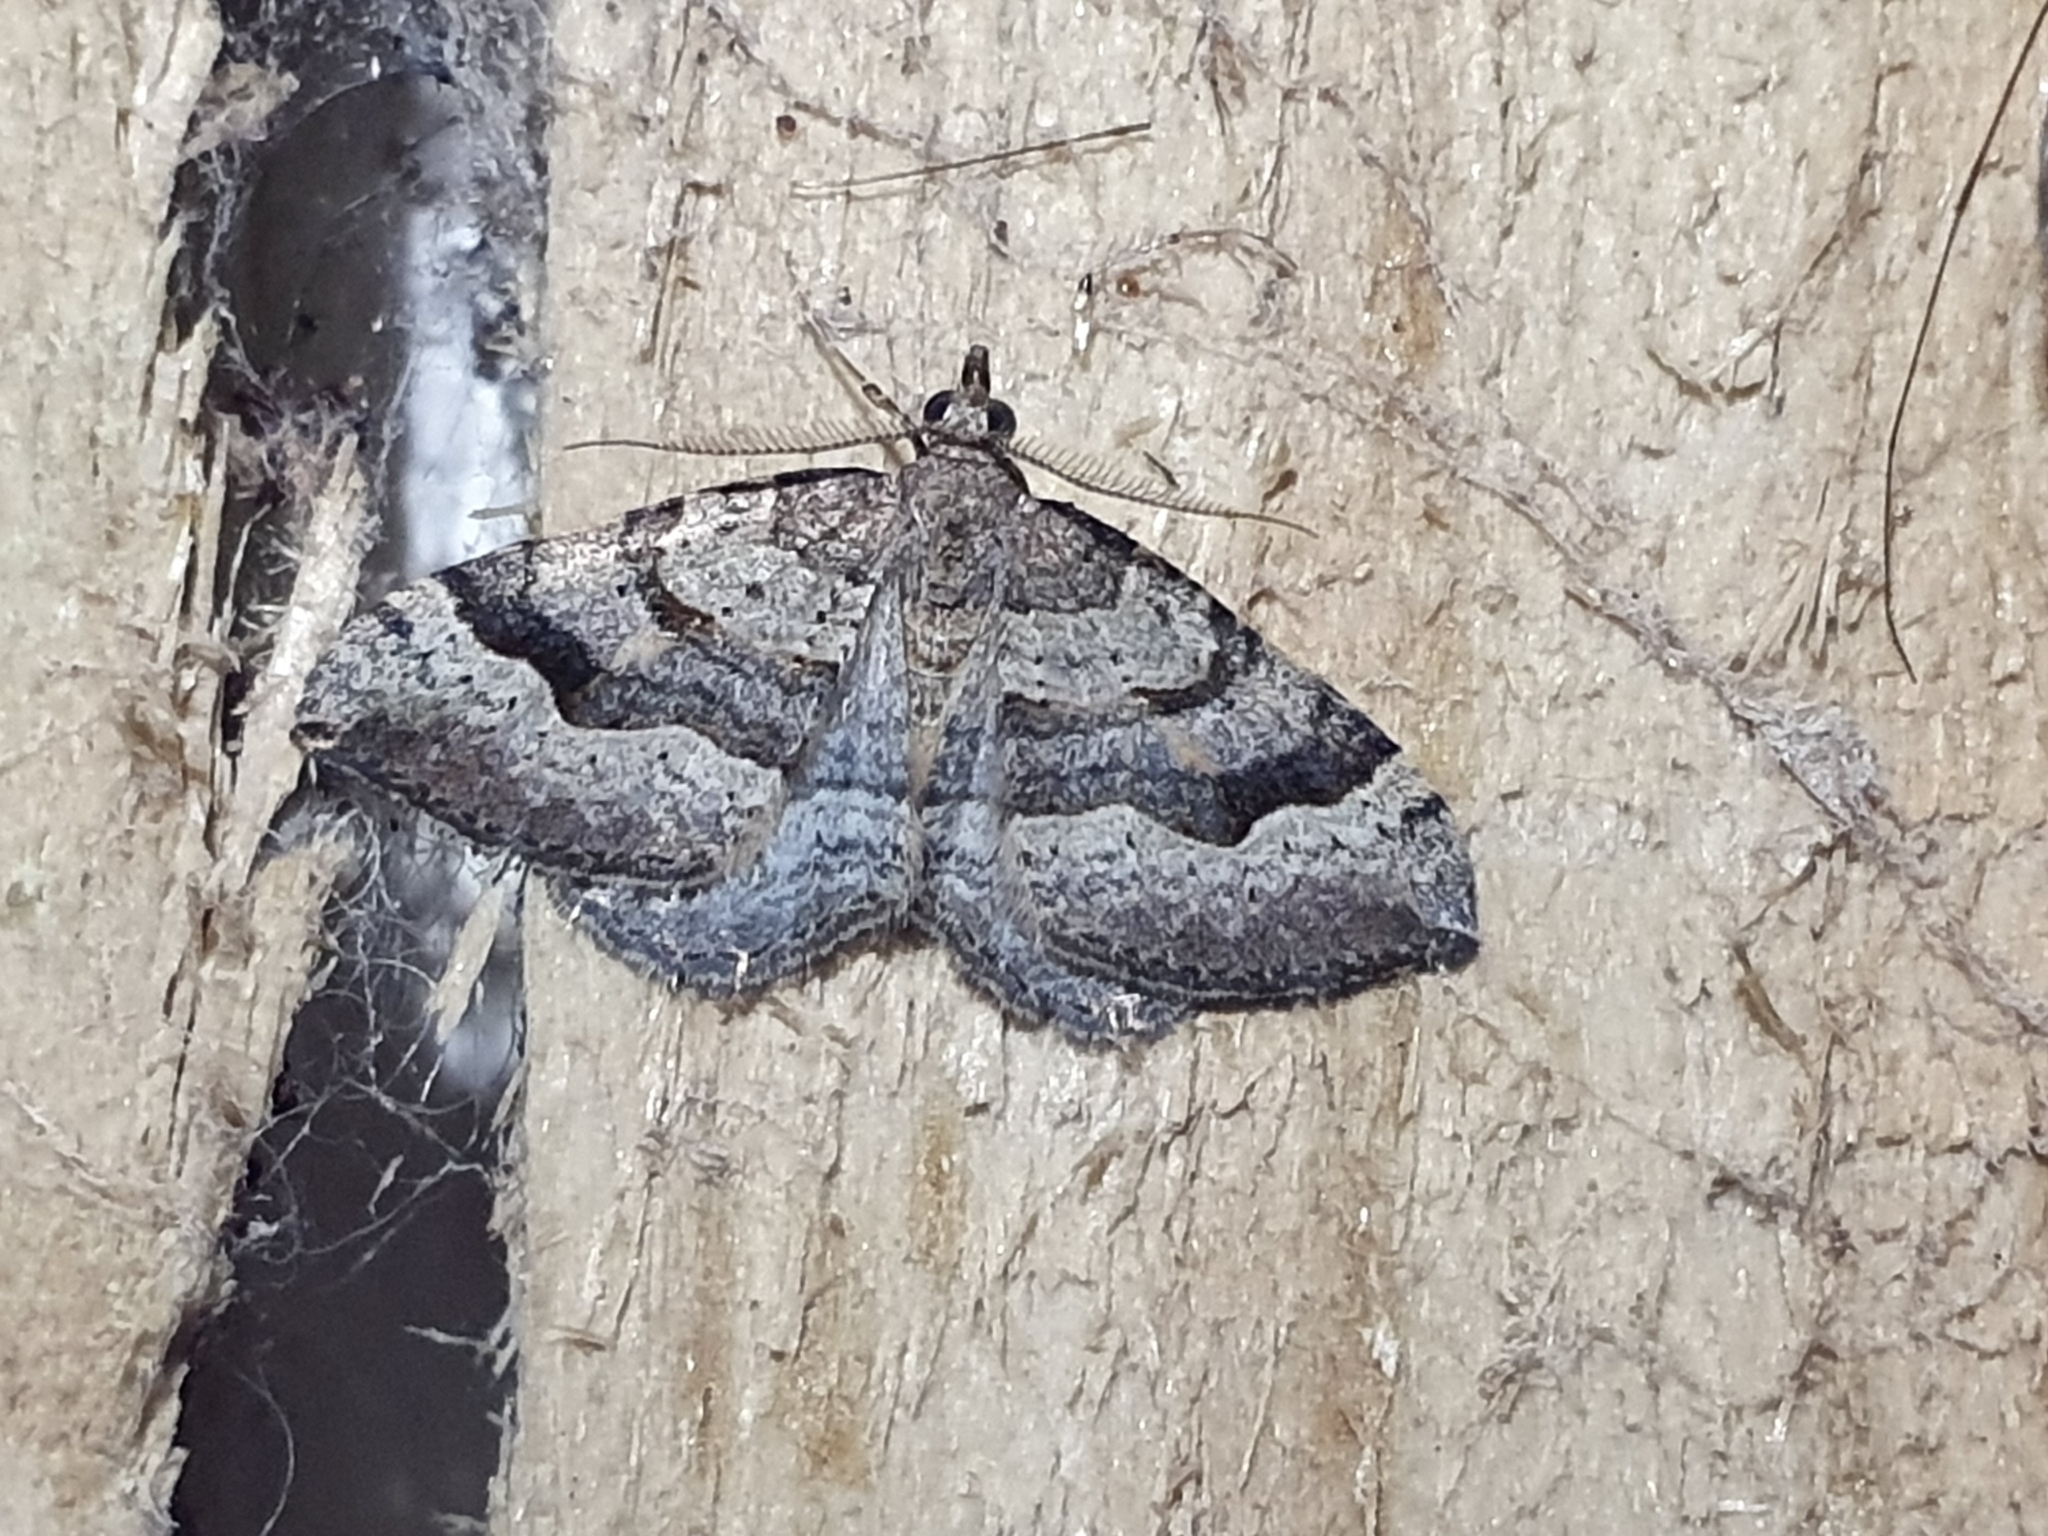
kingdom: Animalia
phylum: Arthropoda
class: Insecta
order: Lepidoptera
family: Geometridae
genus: Epyaxa
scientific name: Epyaxa rosearia
